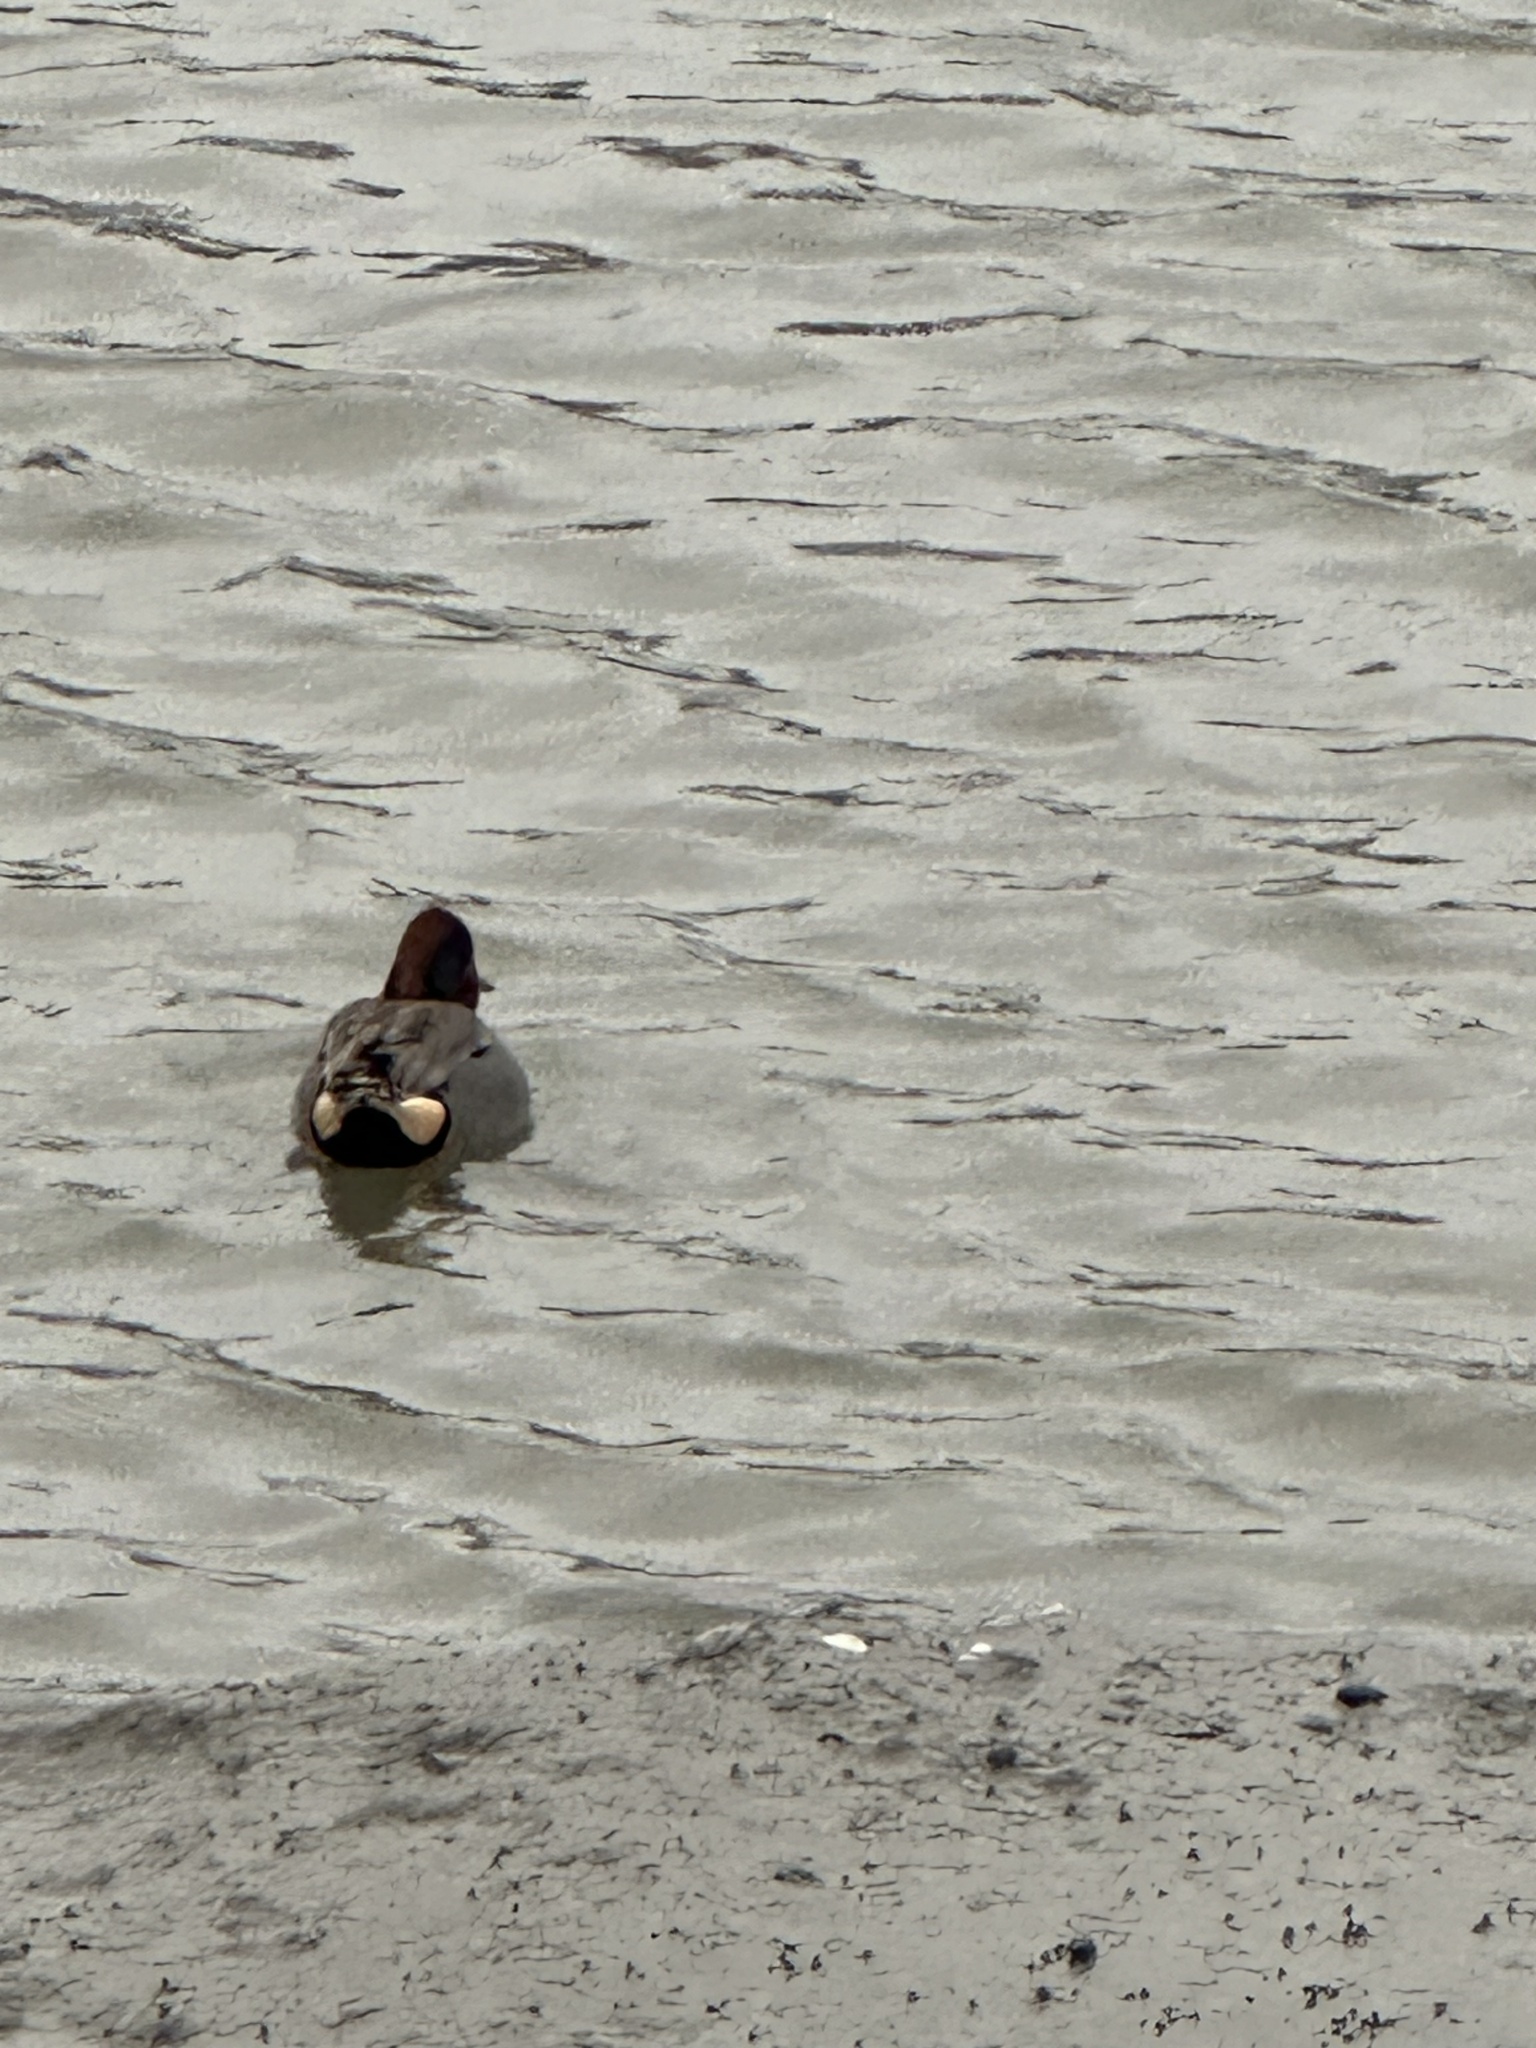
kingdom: Animalia
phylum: Chordata
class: Aves
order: Anseriformes
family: Anatidae
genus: Anas
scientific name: Anas crecca
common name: Eurasian teal
